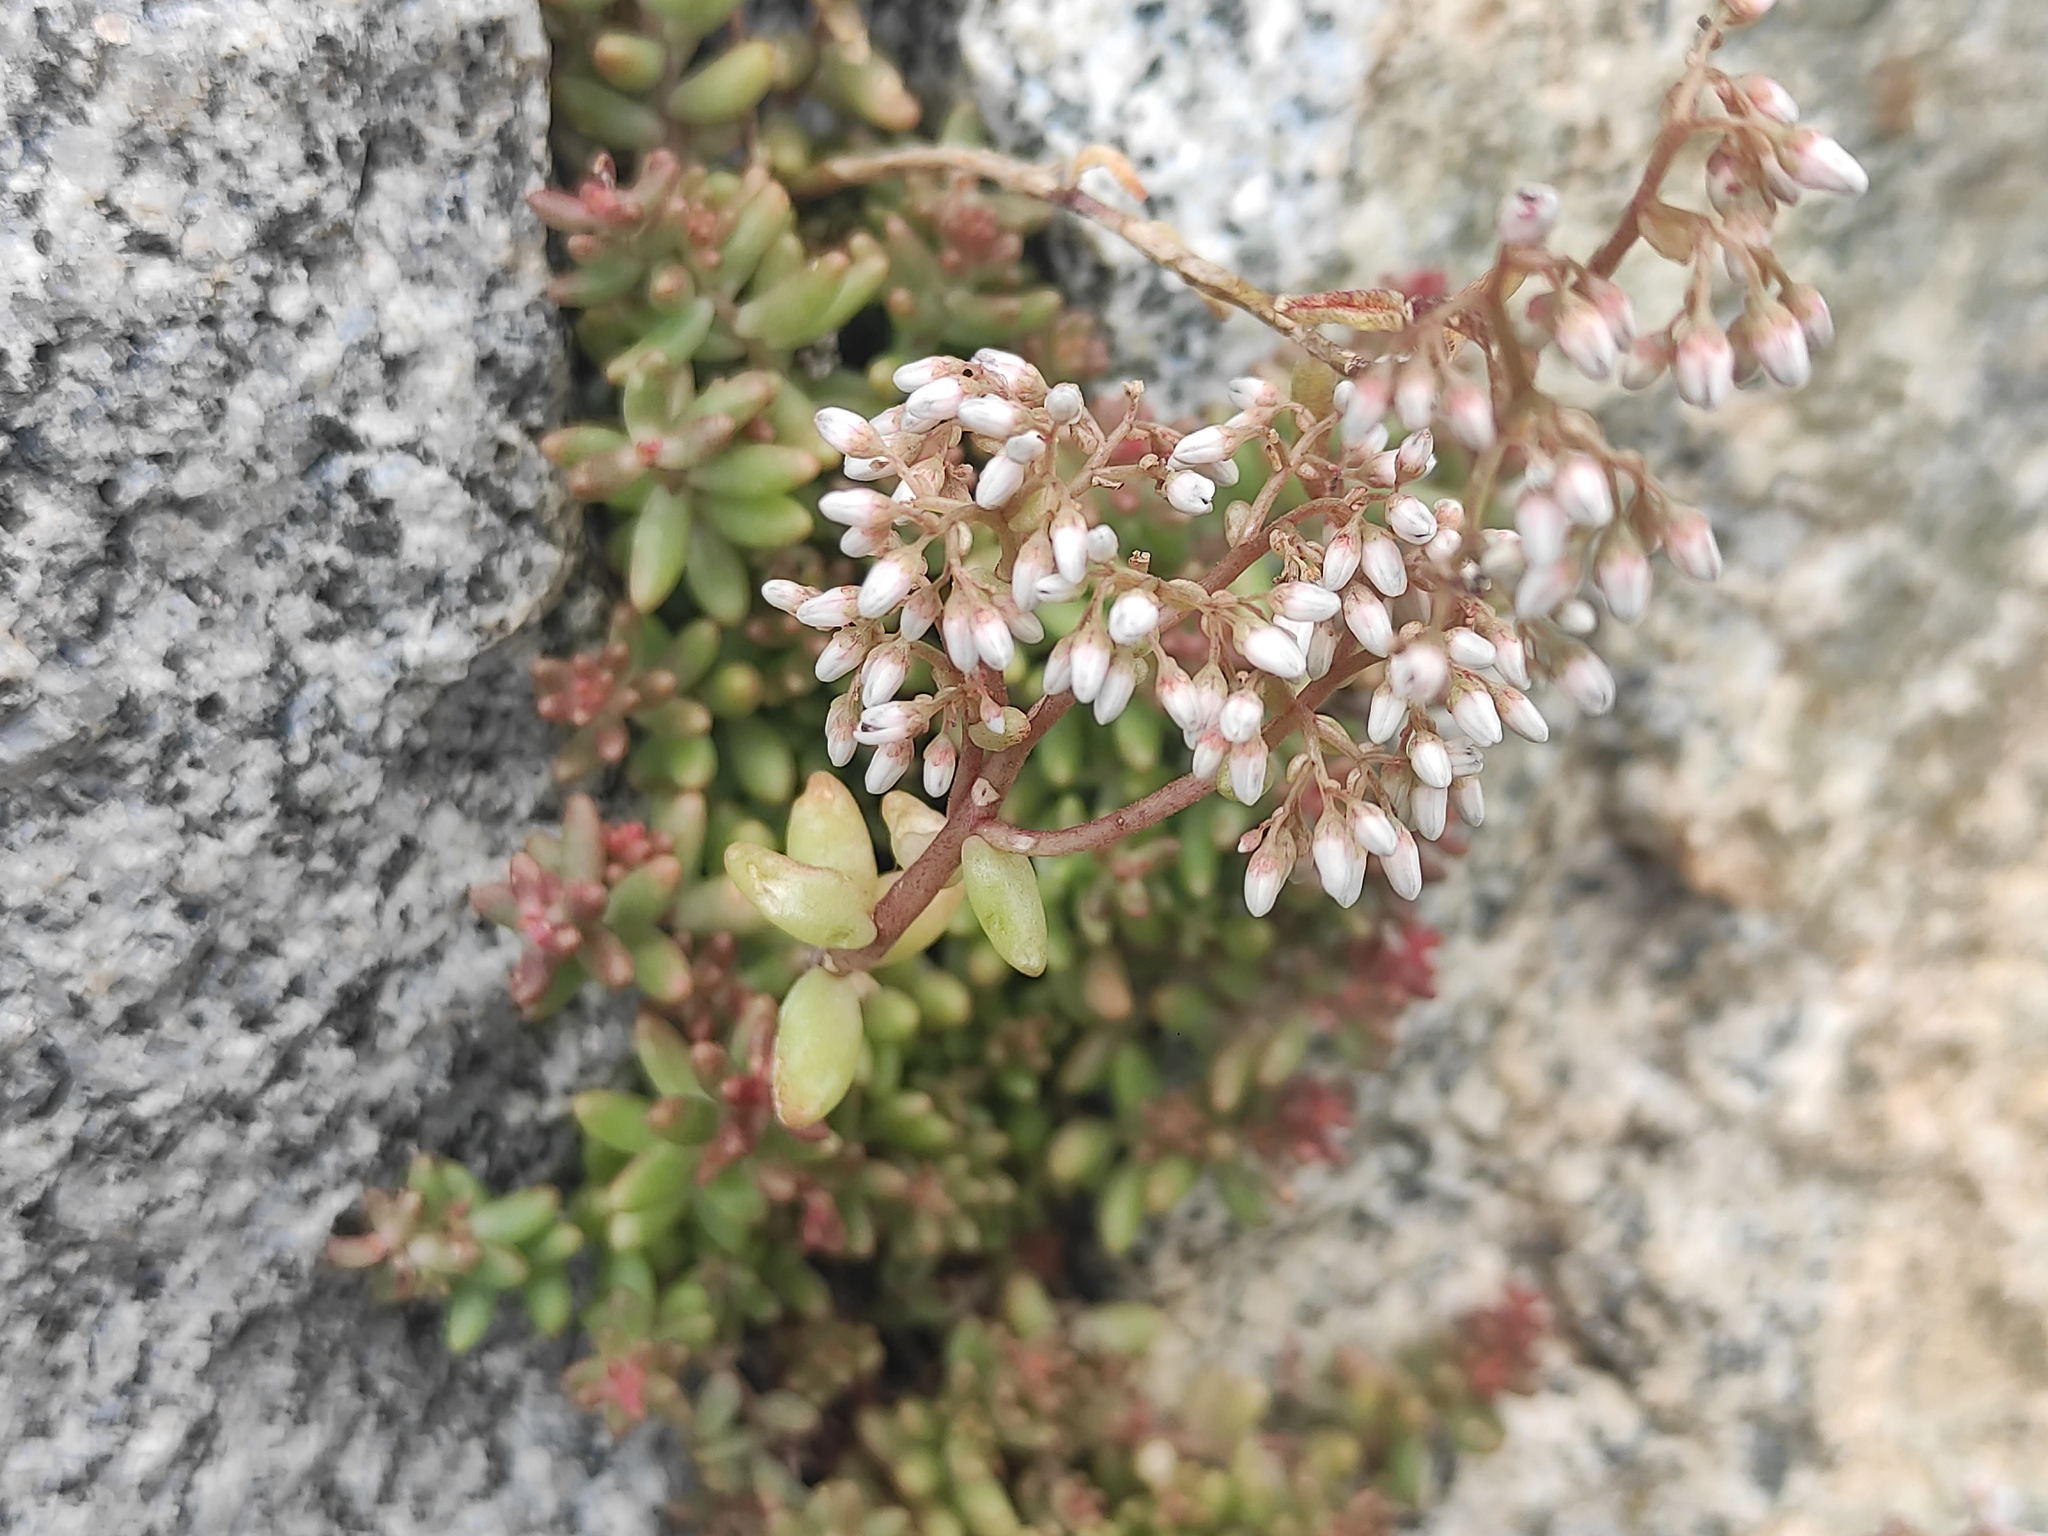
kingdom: Plantae
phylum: Tracheophyta
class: Magnoliopsida
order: Saxifragales
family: Crassulaceae
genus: Sedum
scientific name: Sedum album
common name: White stonecrop
